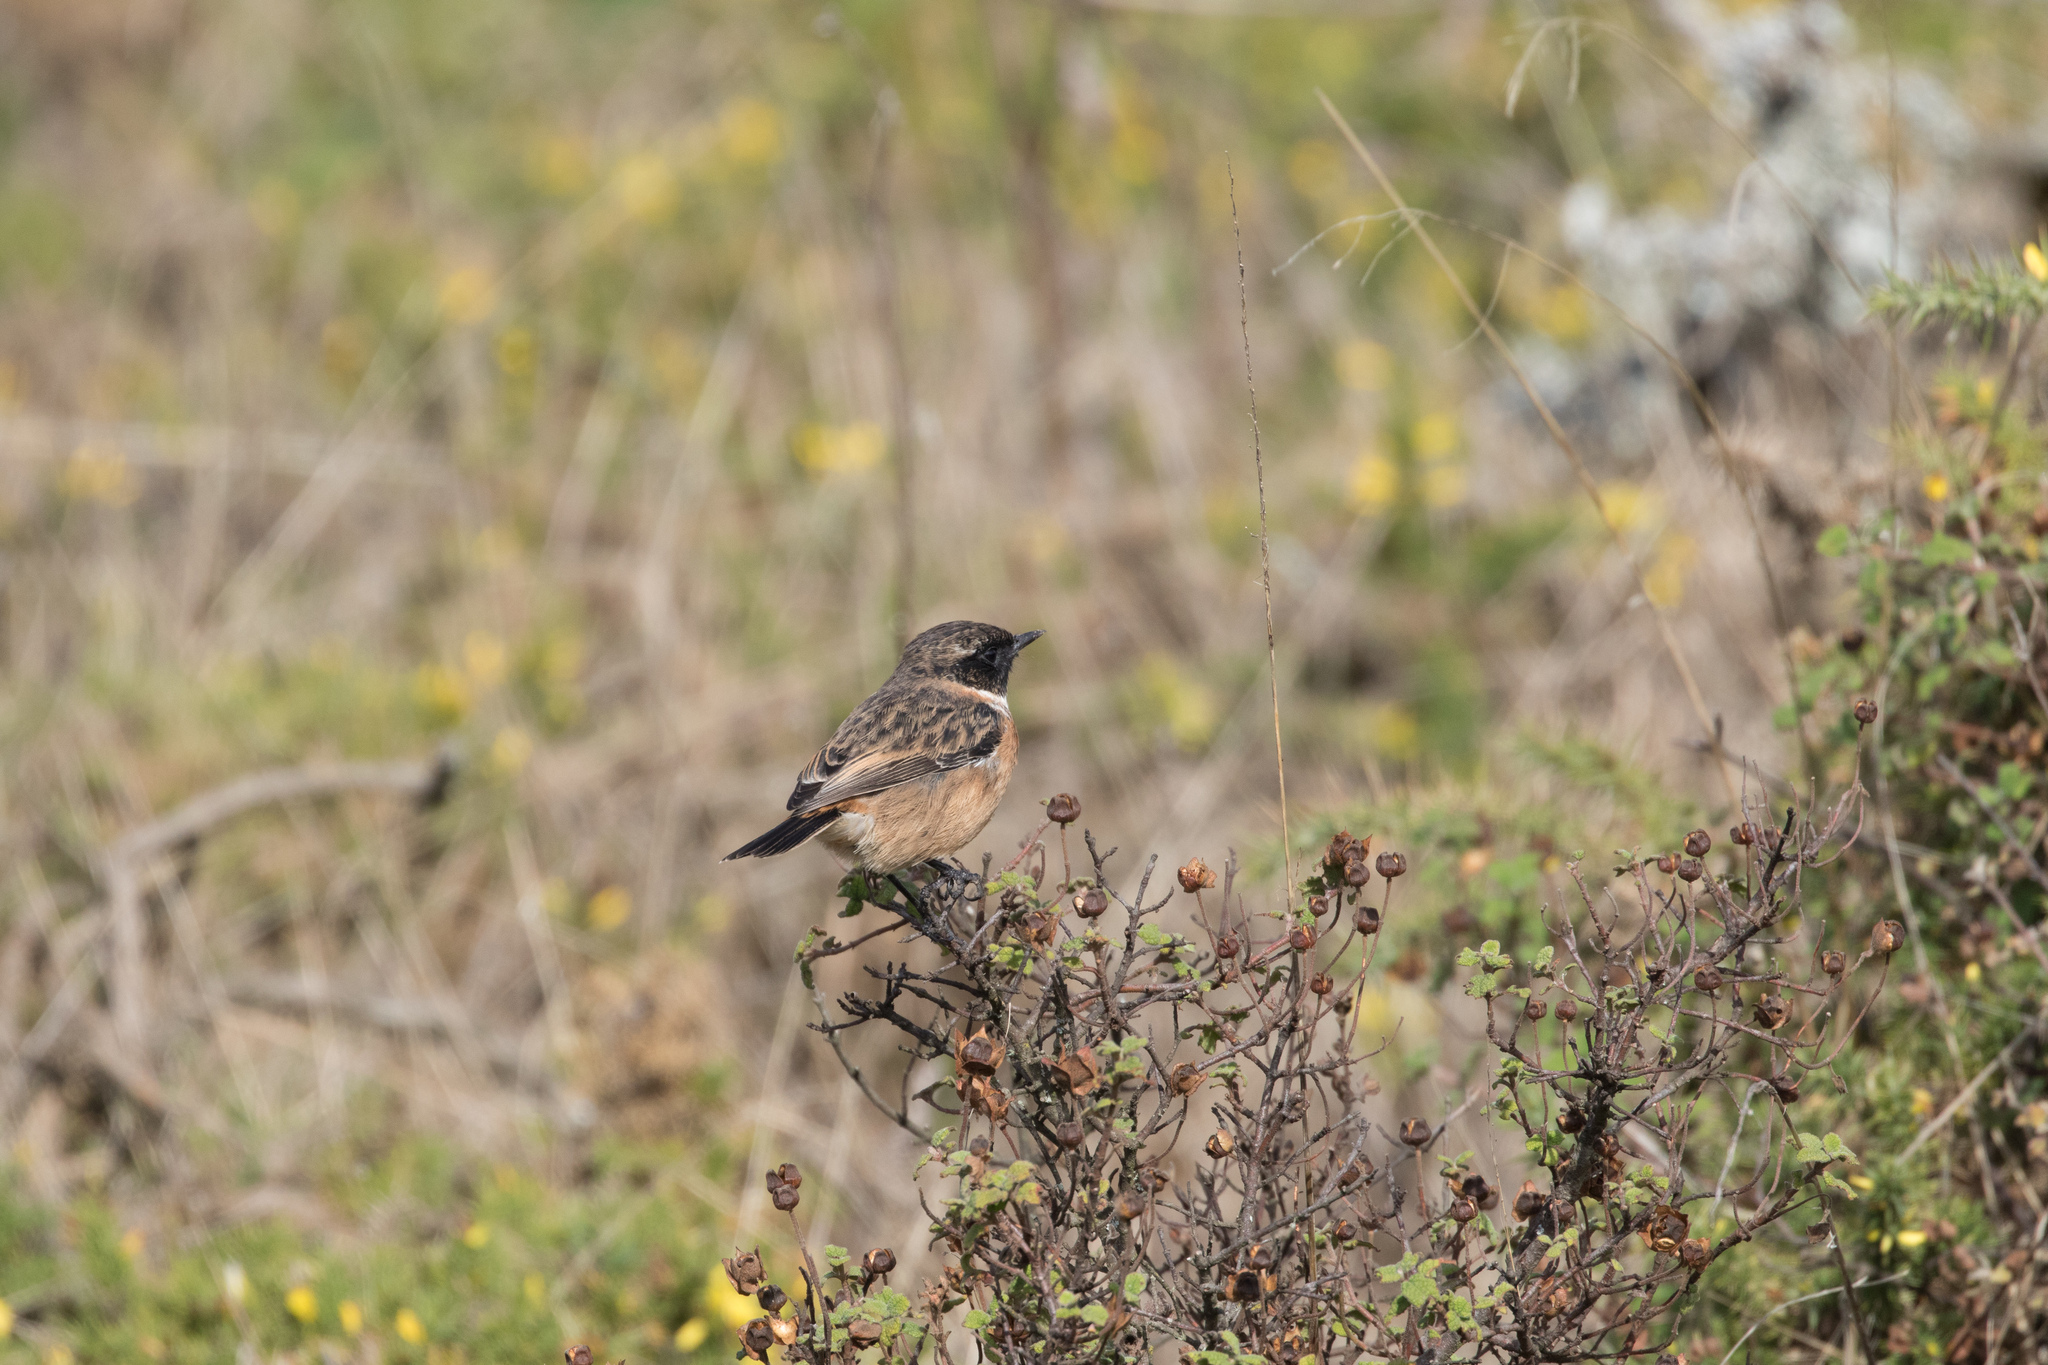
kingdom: Animalia
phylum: Chordata
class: Aves
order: Passeriformes
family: Muscicapidae
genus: Saxicola
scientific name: Saxicola rubicola
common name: European stonechat
